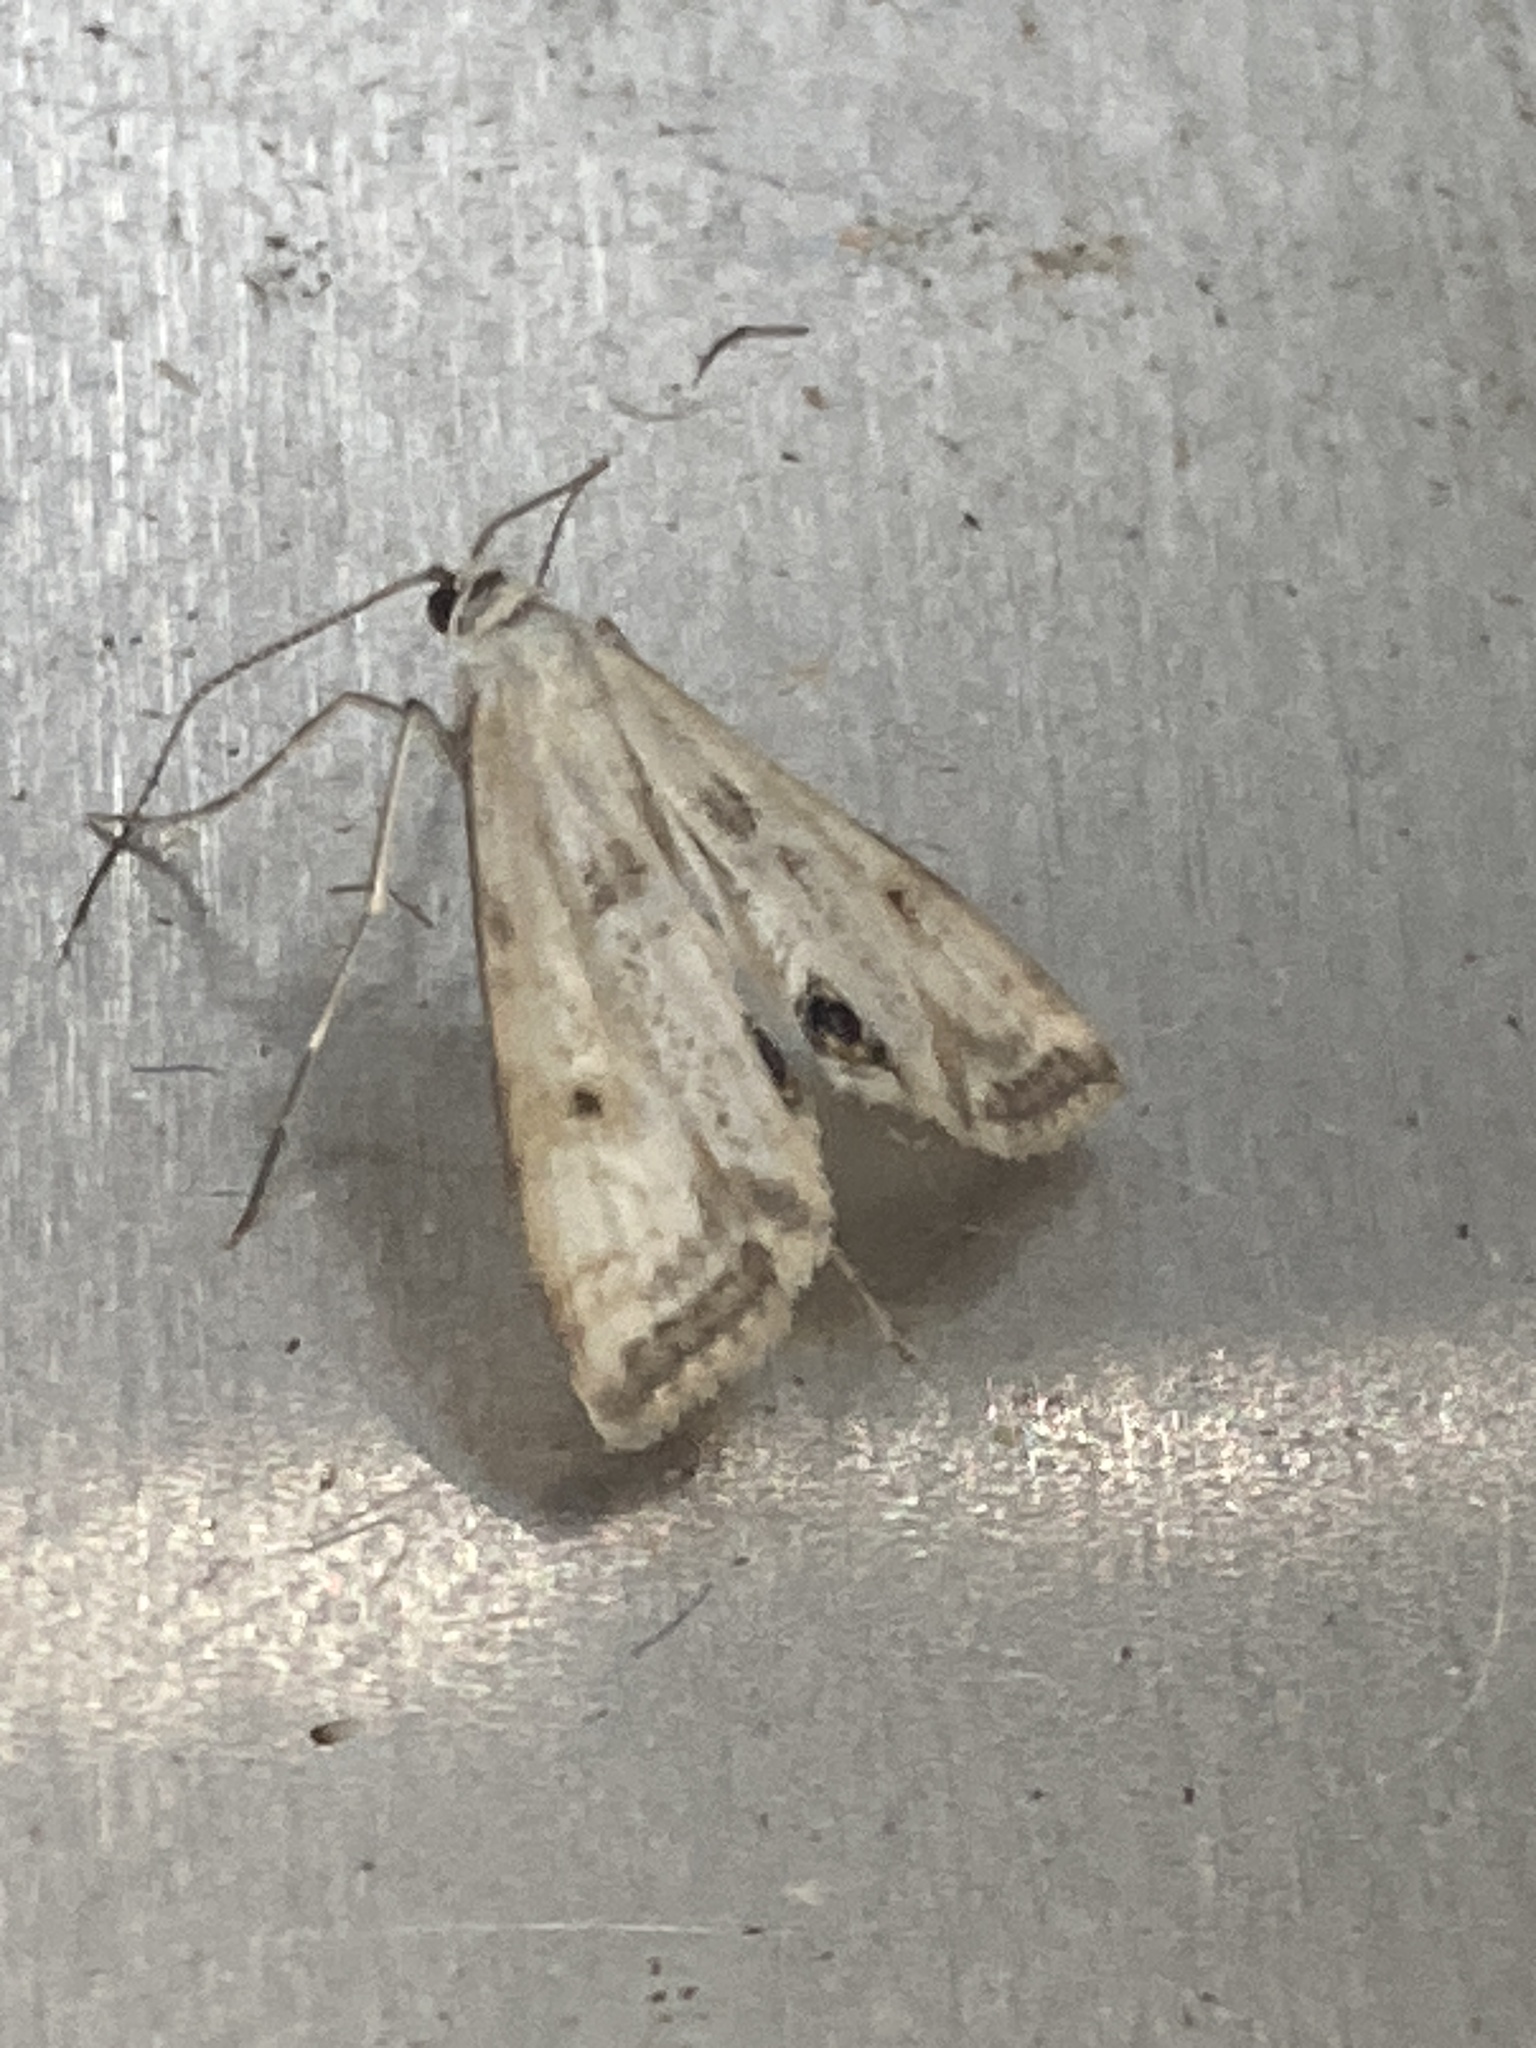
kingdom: Animalia
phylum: Arthropoda
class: Insecta
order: Lepidoptera
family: Crambidae
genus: Cataclysta
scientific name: Cataclysta lemnata
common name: Small china-mark
